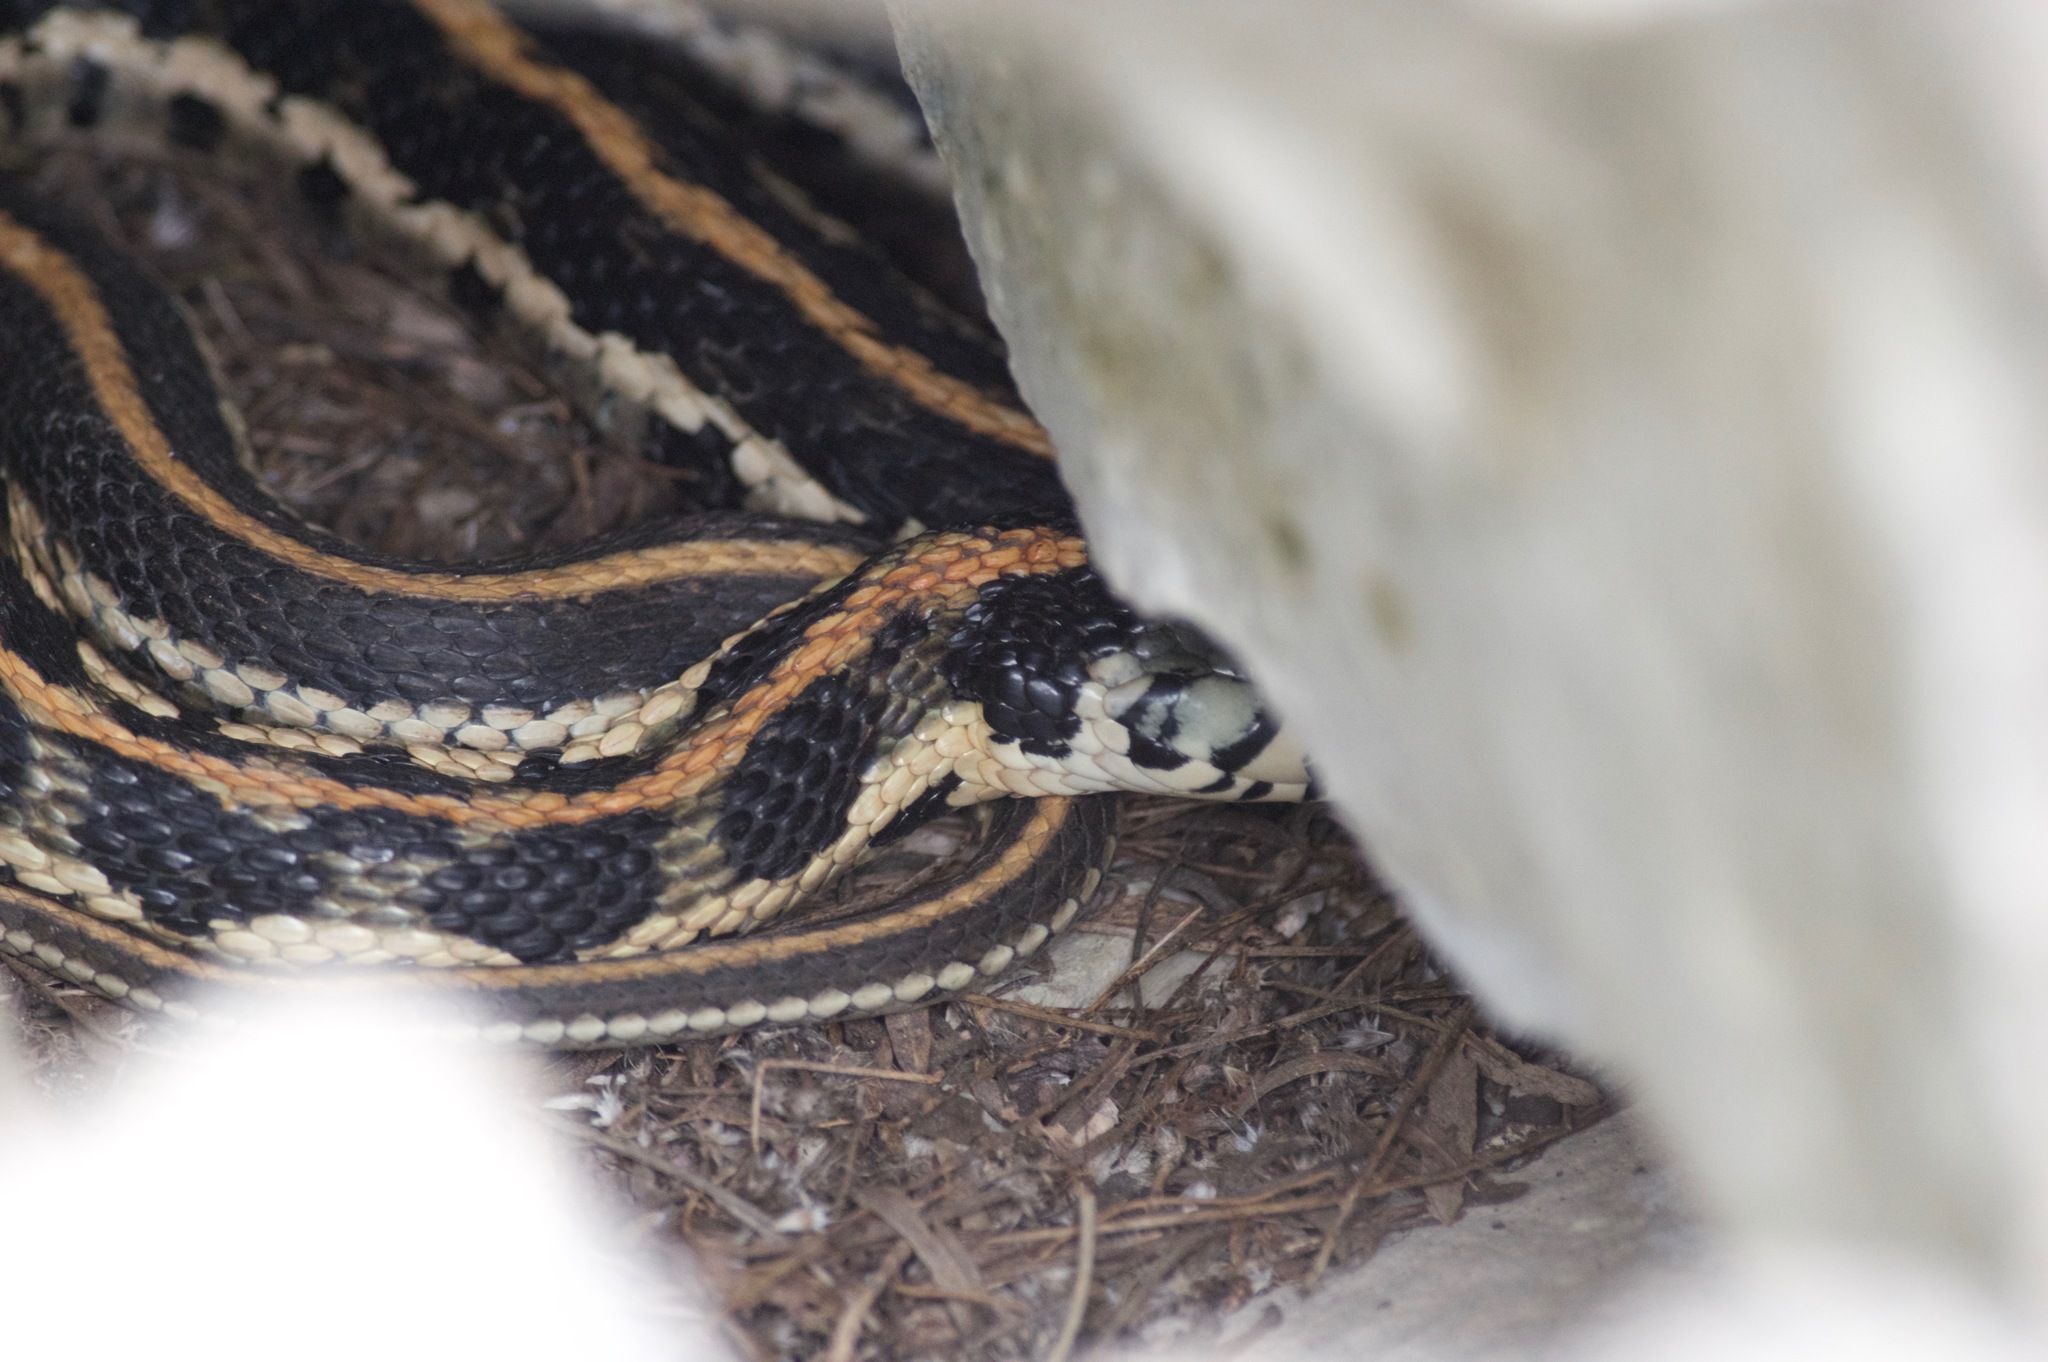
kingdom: Animalia
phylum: Chordata
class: Squamata
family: Colubridae
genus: Thamnophis
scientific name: Thamnophis cyrtopsis
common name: Black-necked gartersnake
